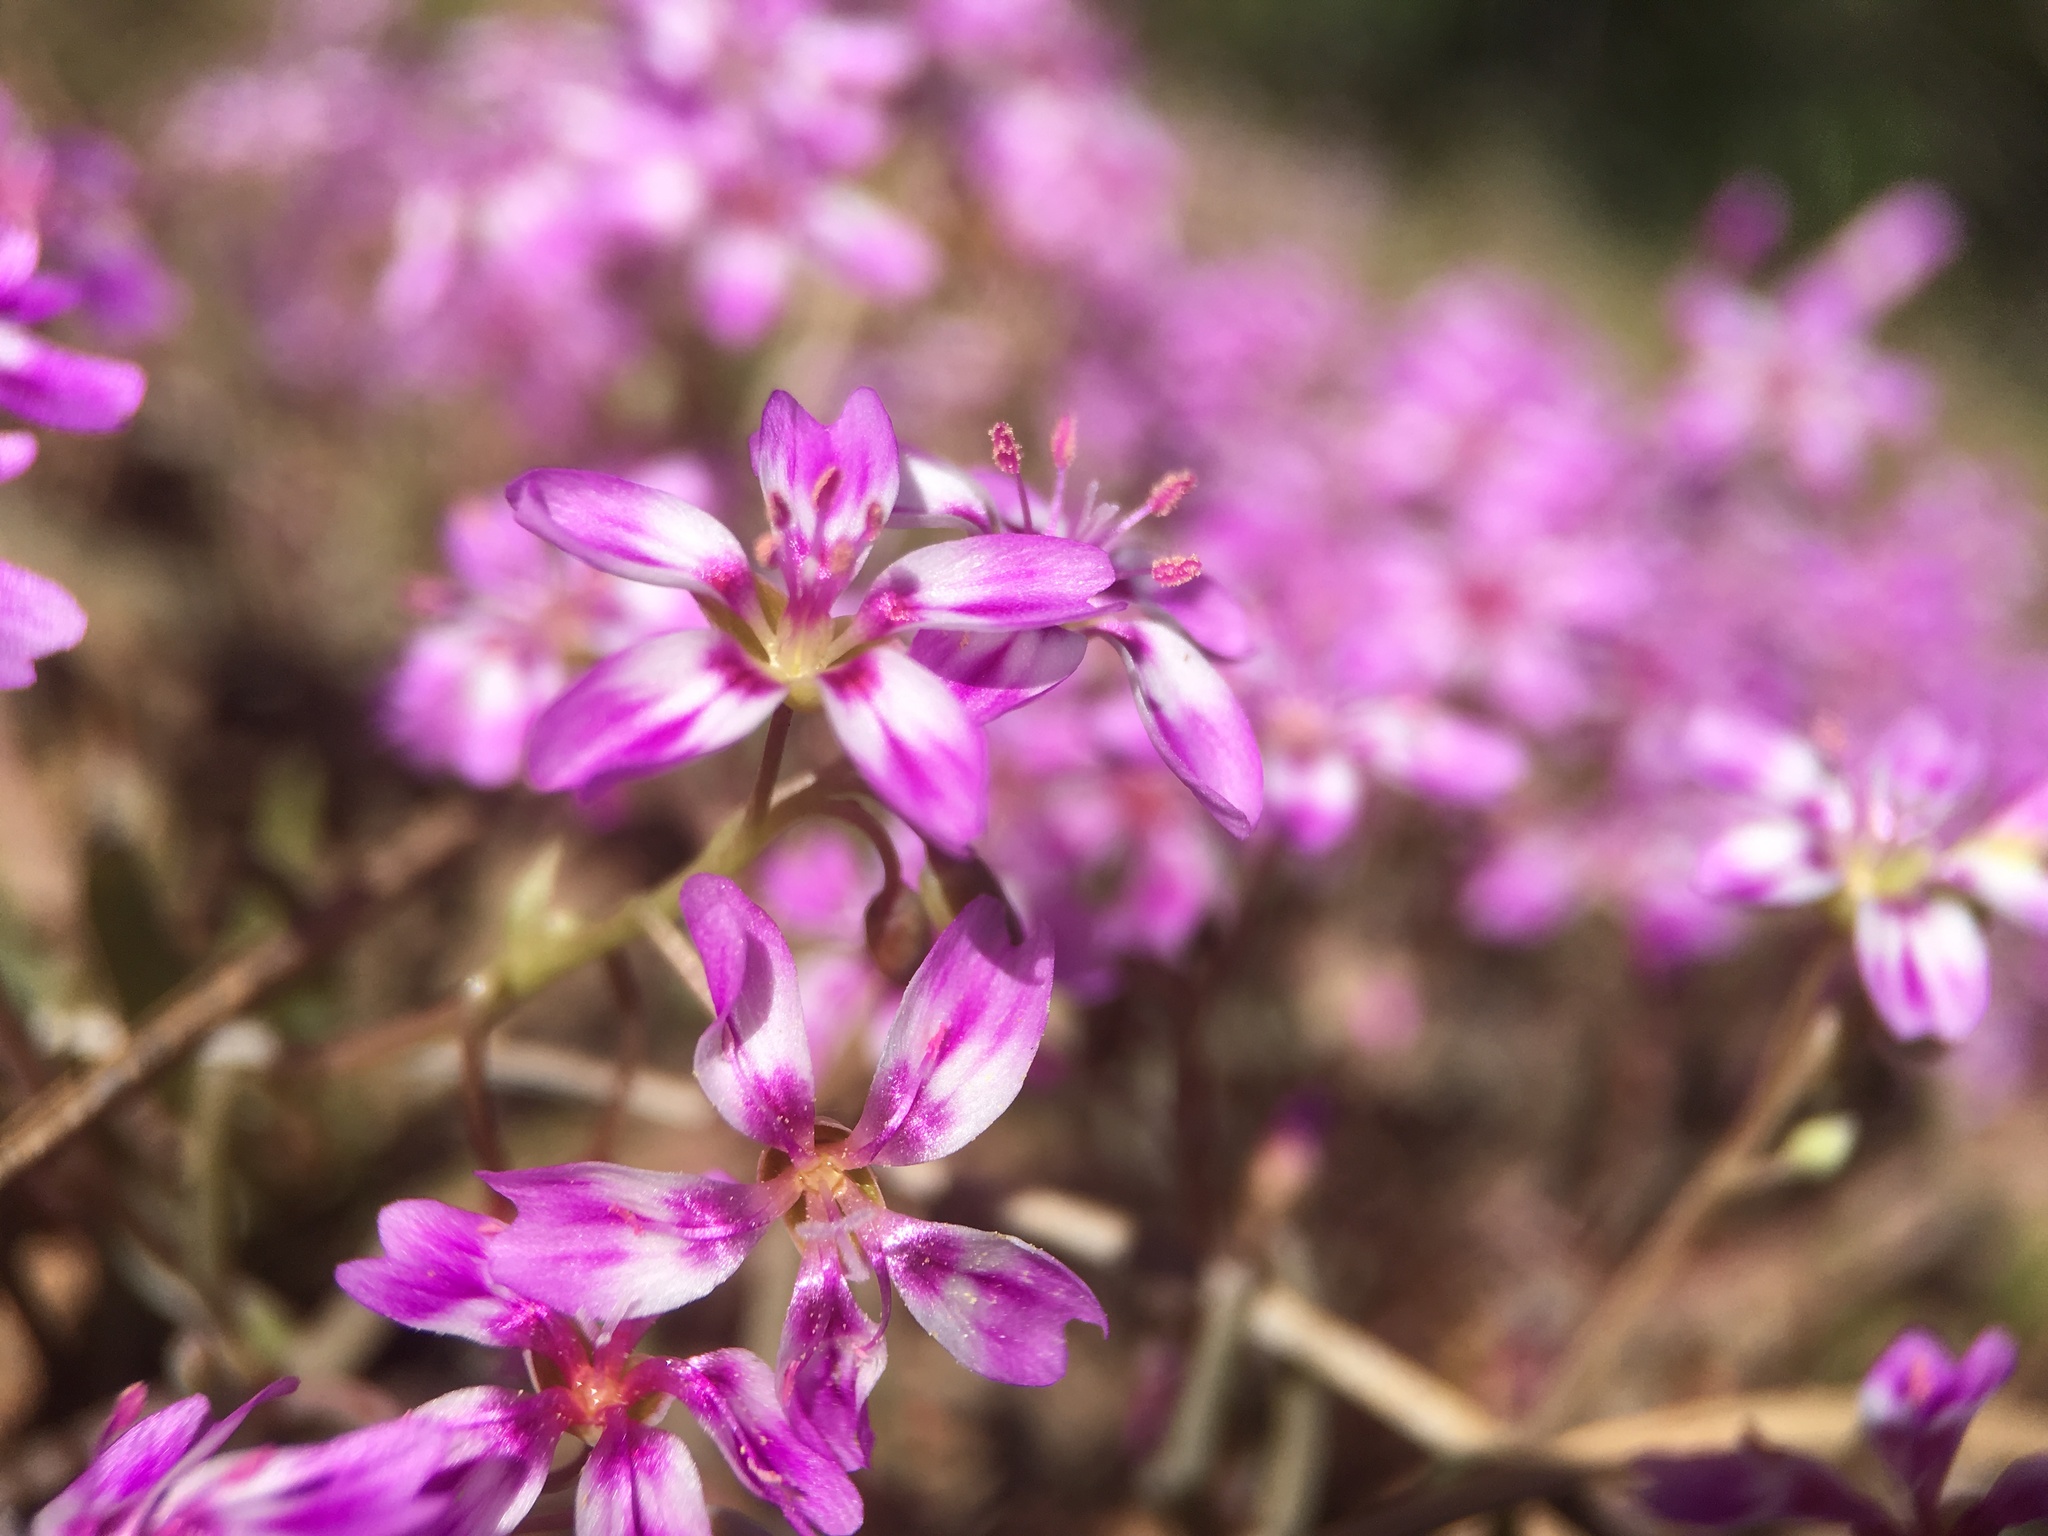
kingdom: Plantae
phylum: Tracheophyta
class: Magnoliopsida
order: Caryophyllales
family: Montiaceae
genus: Claytonia
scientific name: Claytonia gypsophiloides
